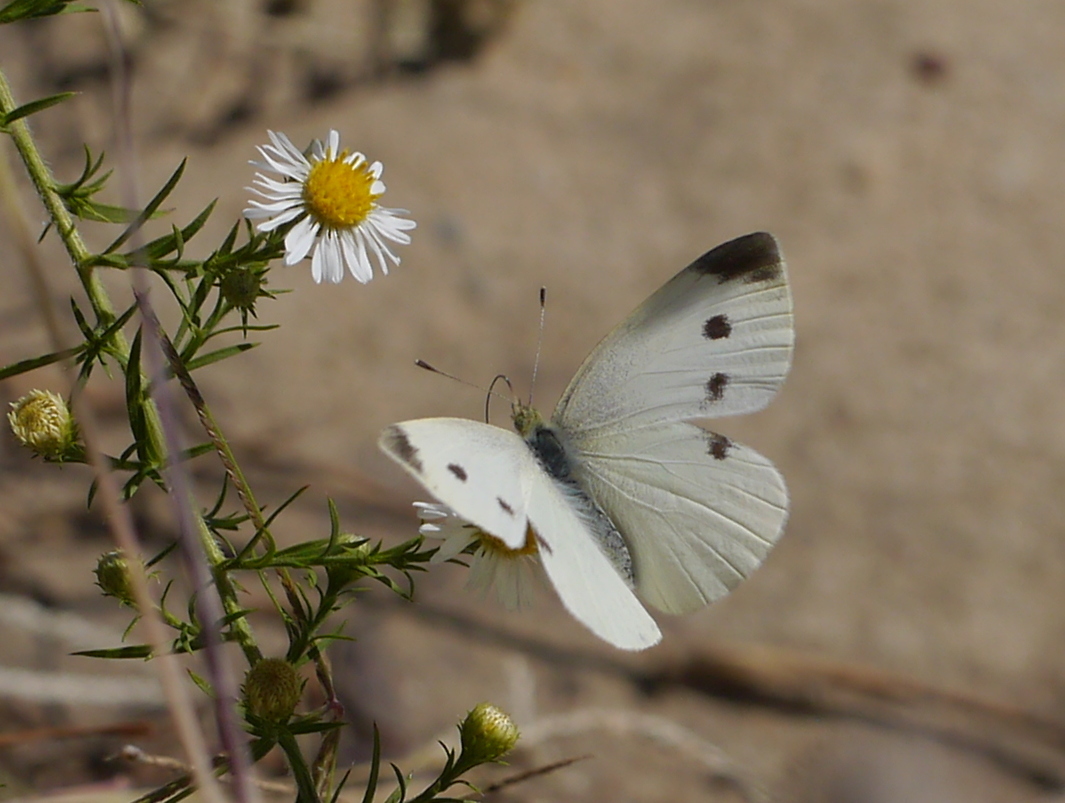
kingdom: Animalia
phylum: Arthropoda
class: Insecta
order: Lepidoptera
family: Pieridae
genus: Pieris
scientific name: Pieris rapae
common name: Small white
